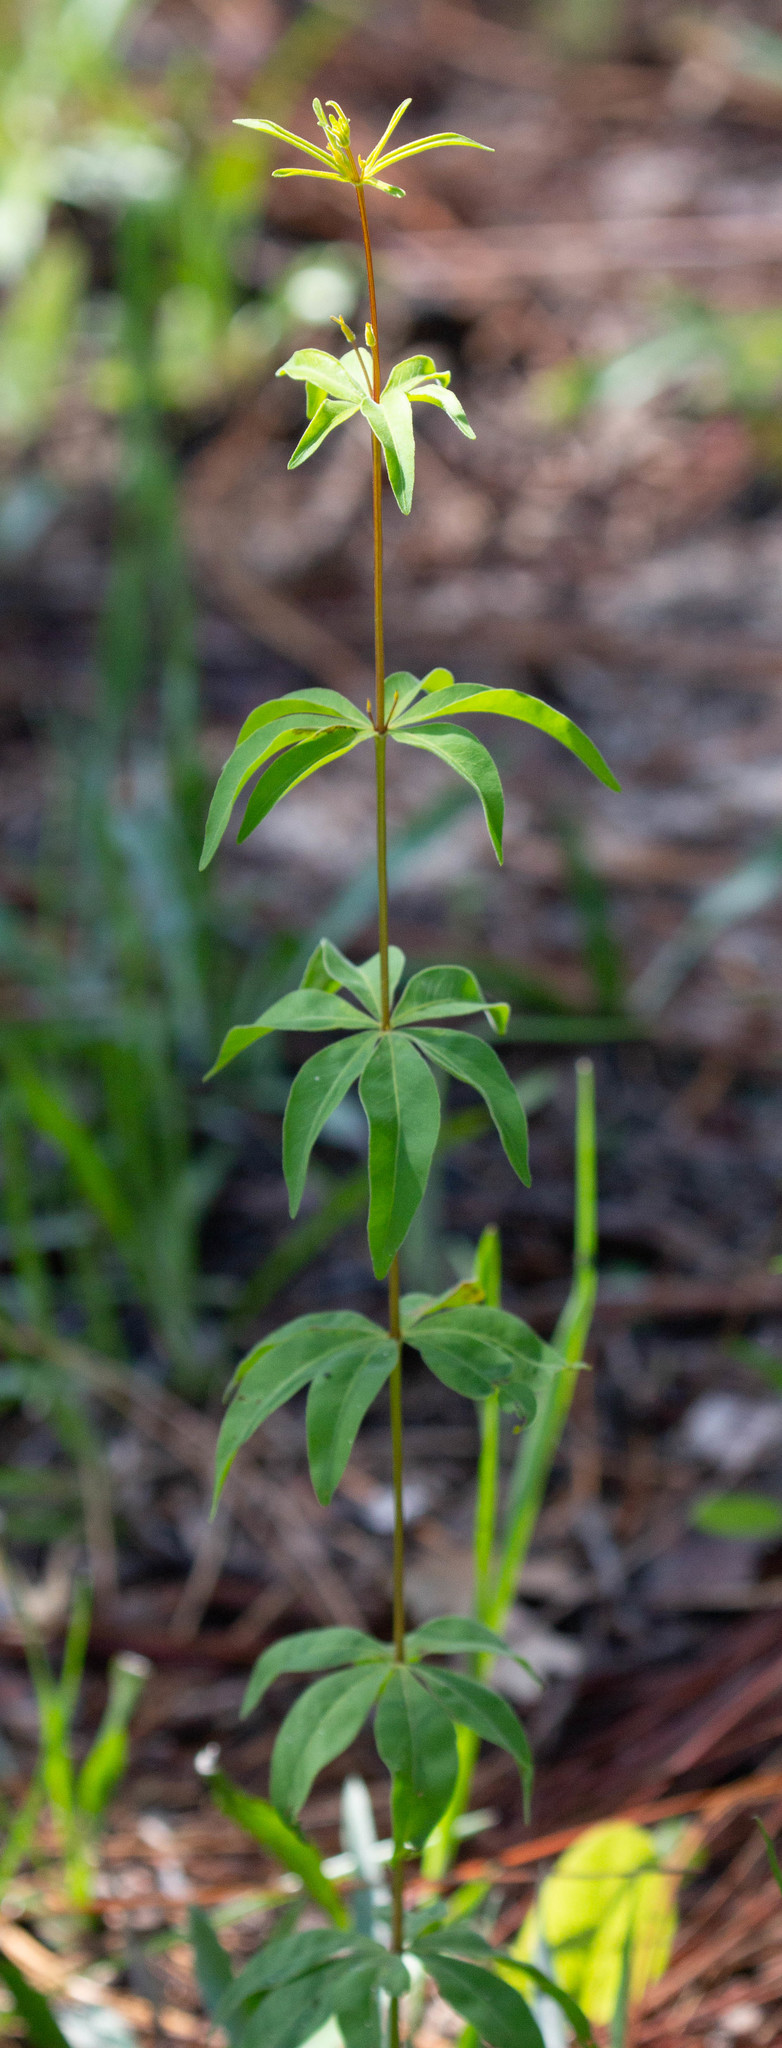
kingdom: Plantae
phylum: Tracheophyta
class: Magnoliopsida
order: Asterales
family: Asteraceae
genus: Coreopsis
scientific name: Coreopsis major
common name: Forest tickseed
